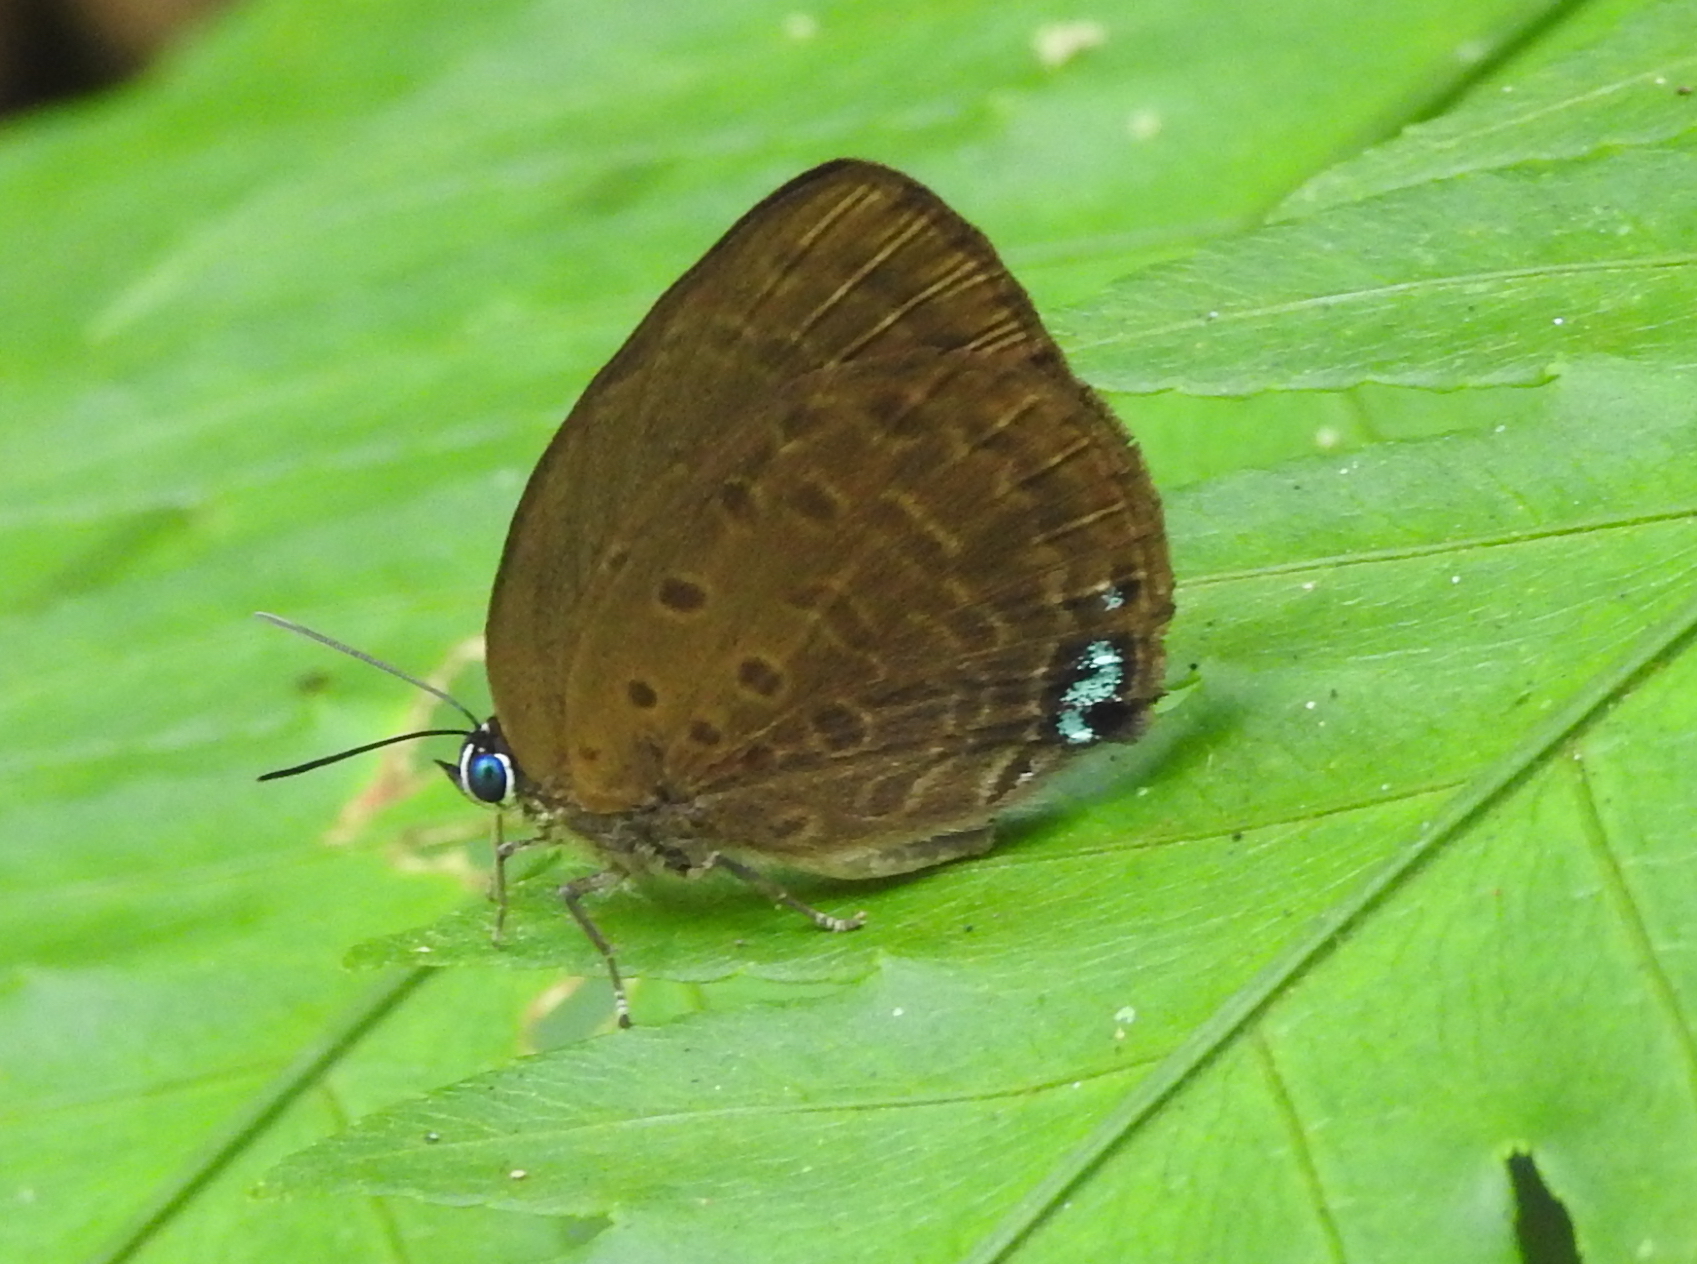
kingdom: Animalia
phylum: Arthropoda
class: Insecta
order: Lepidoptera
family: Lycaenidae
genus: Arhopala
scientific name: Arhopala amphimuta
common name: Broad yellow oakblue
